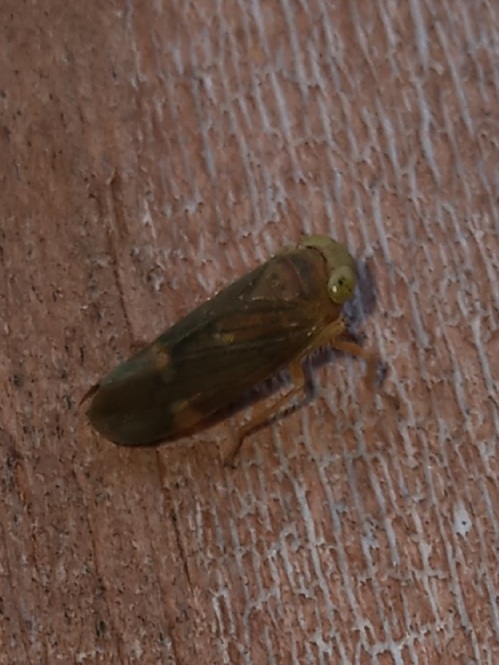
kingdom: Animalia
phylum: Arthropoda
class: Insecta
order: Hemiptera
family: Cicadellidae
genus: Jikradia
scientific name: Jikradia olitoria
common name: Coppery leafhopper
